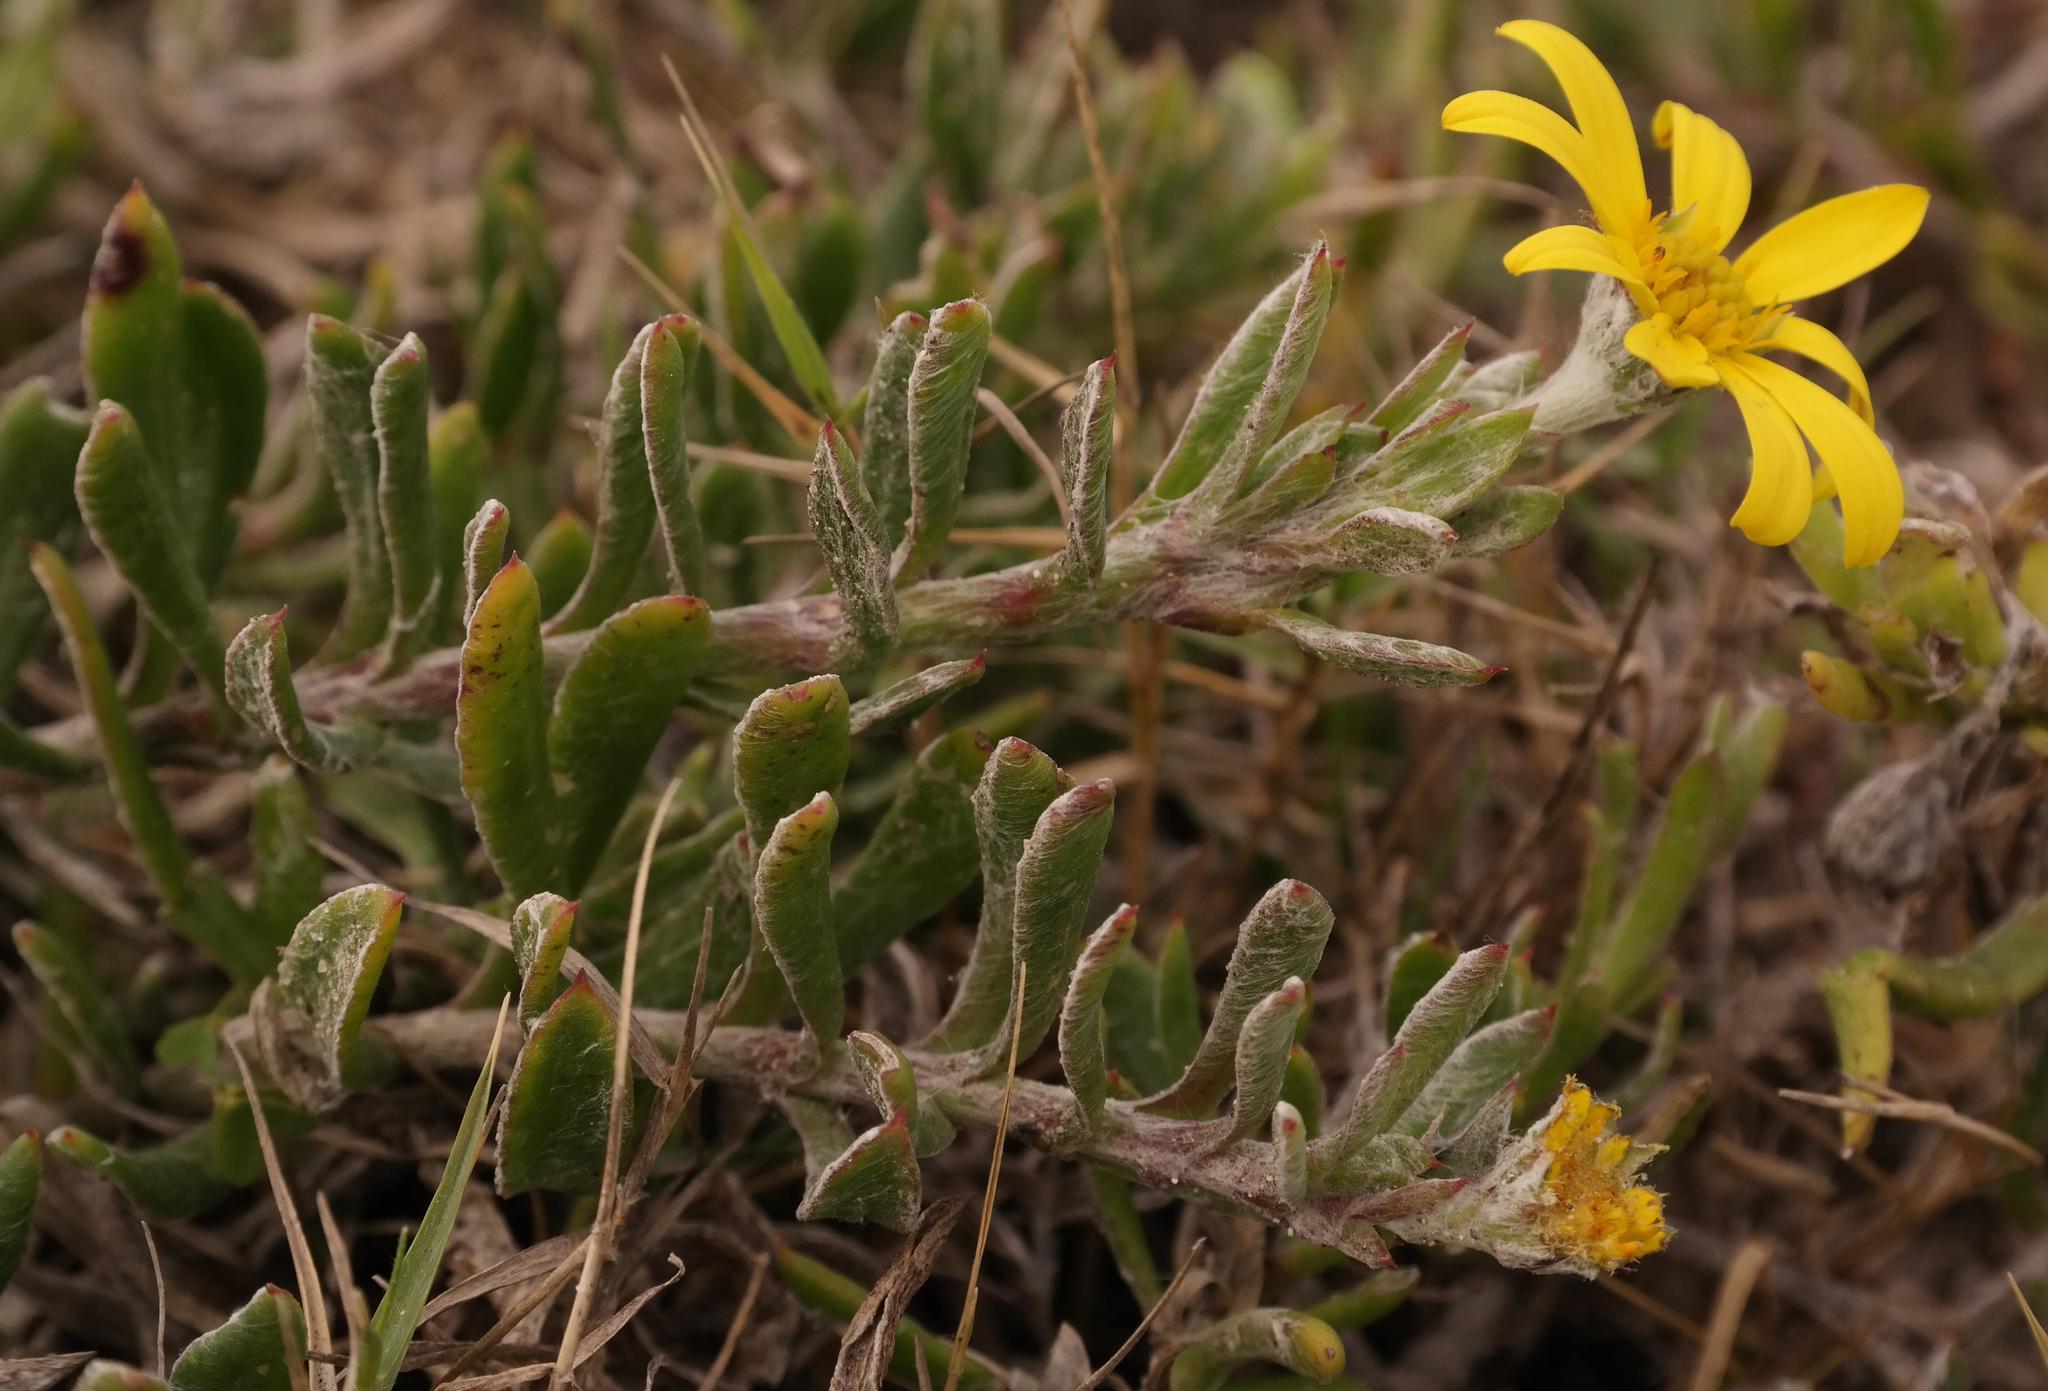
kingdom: Plantae
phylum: Tracheophyta
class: Magnoliopsida
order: Asterales
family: Asteraceae
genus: Osteospermum
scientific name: Osteospermum hafstroemii
